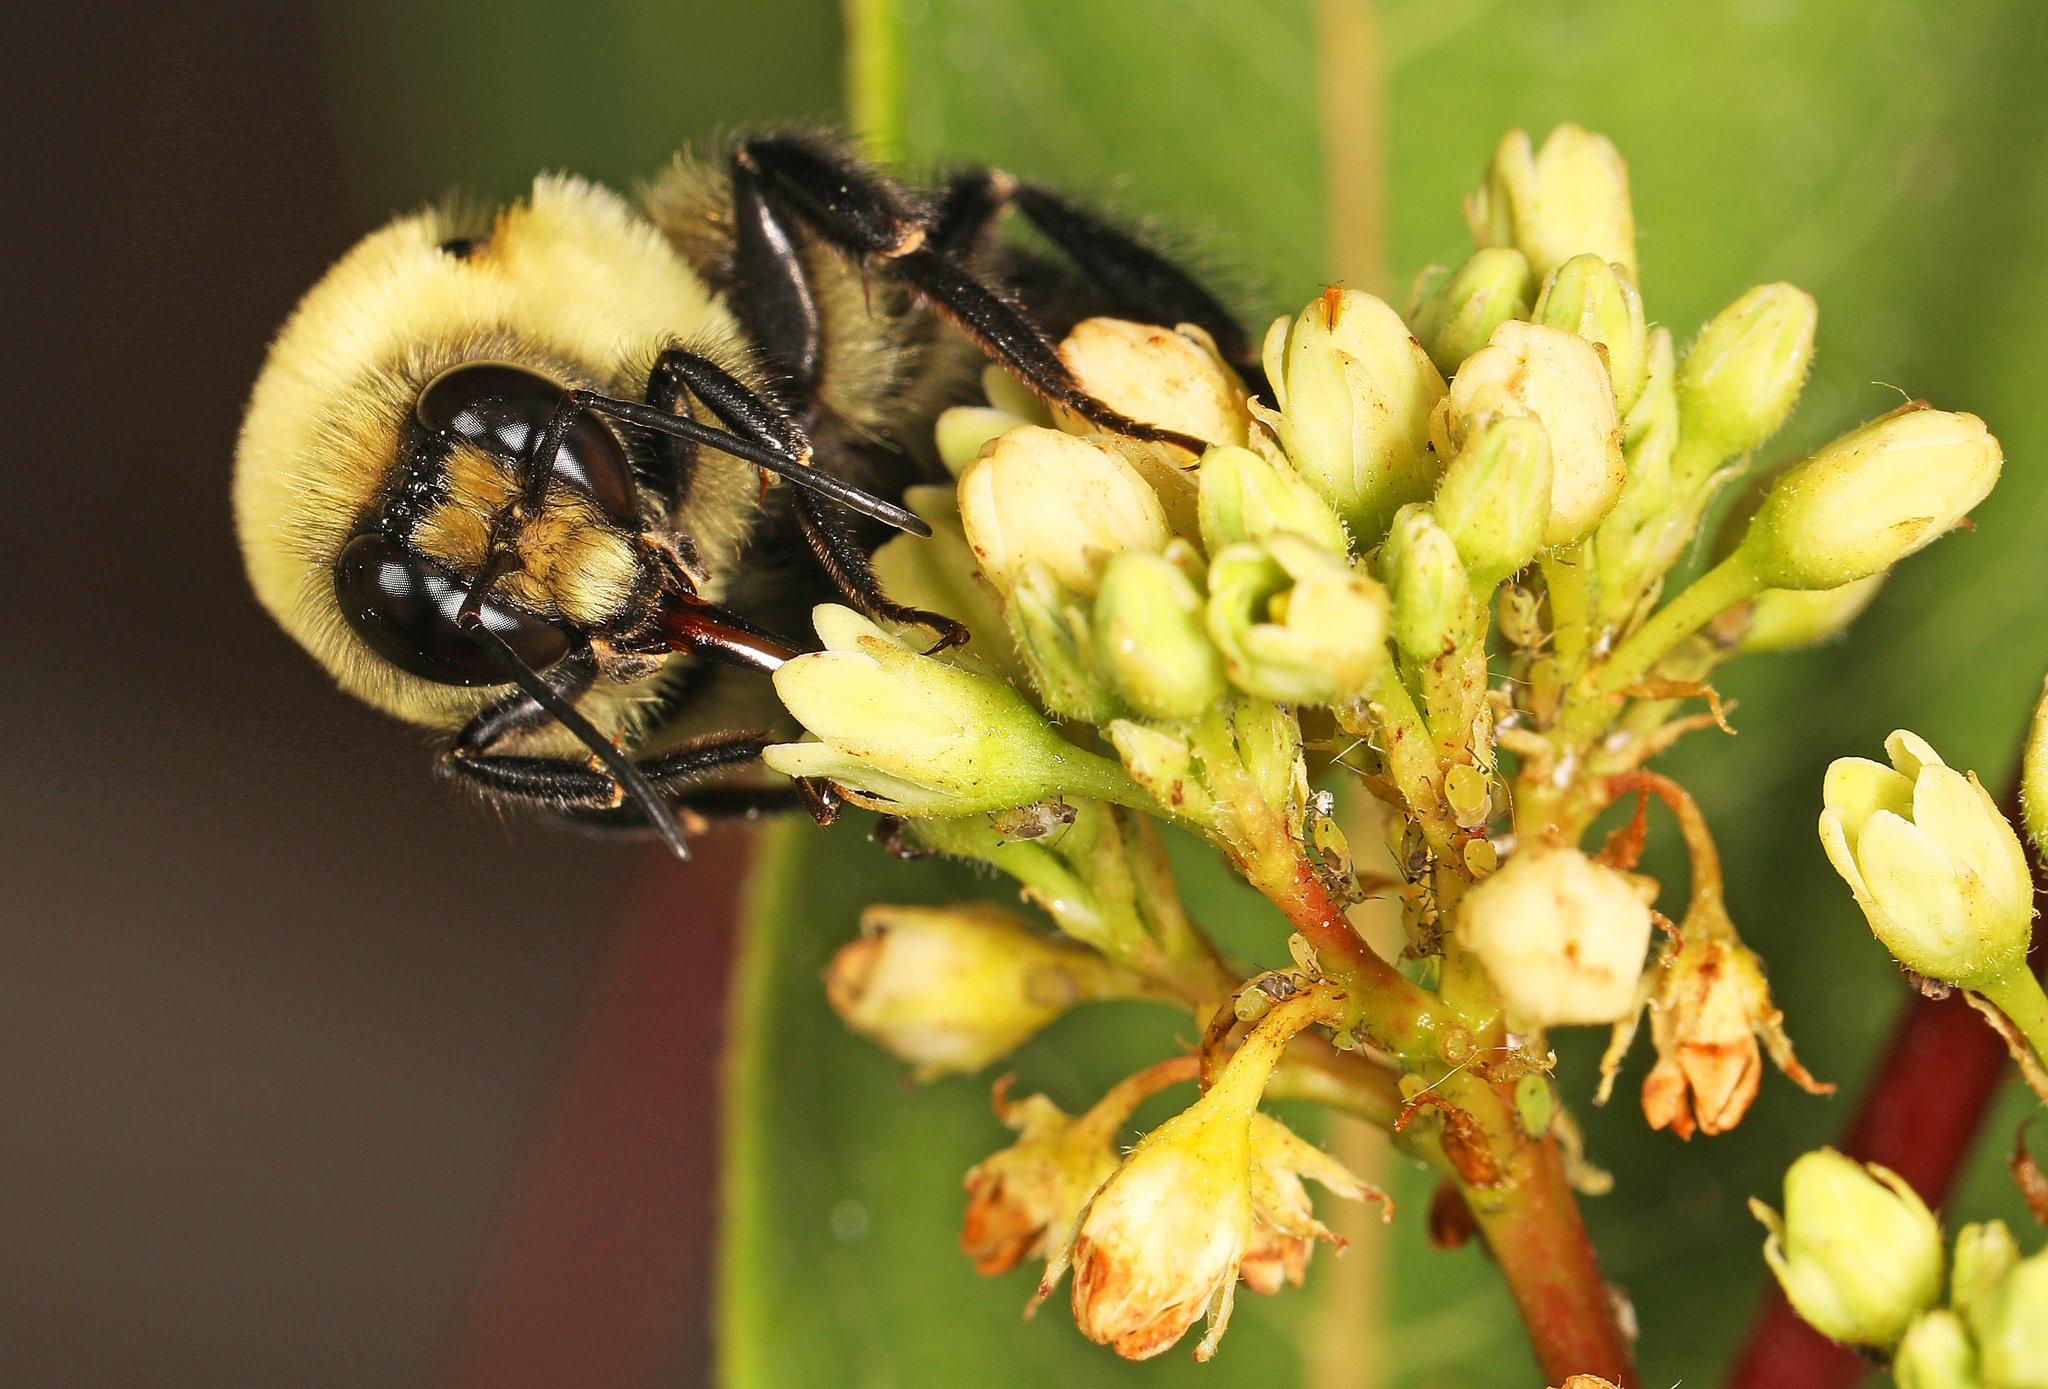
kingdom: Animalia
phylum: Arthropoda
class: Insecta
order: Hymenoptera
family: Apidae
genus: Bombus
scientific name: Bombus griseocollis
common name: Brown-belted bumble bee
